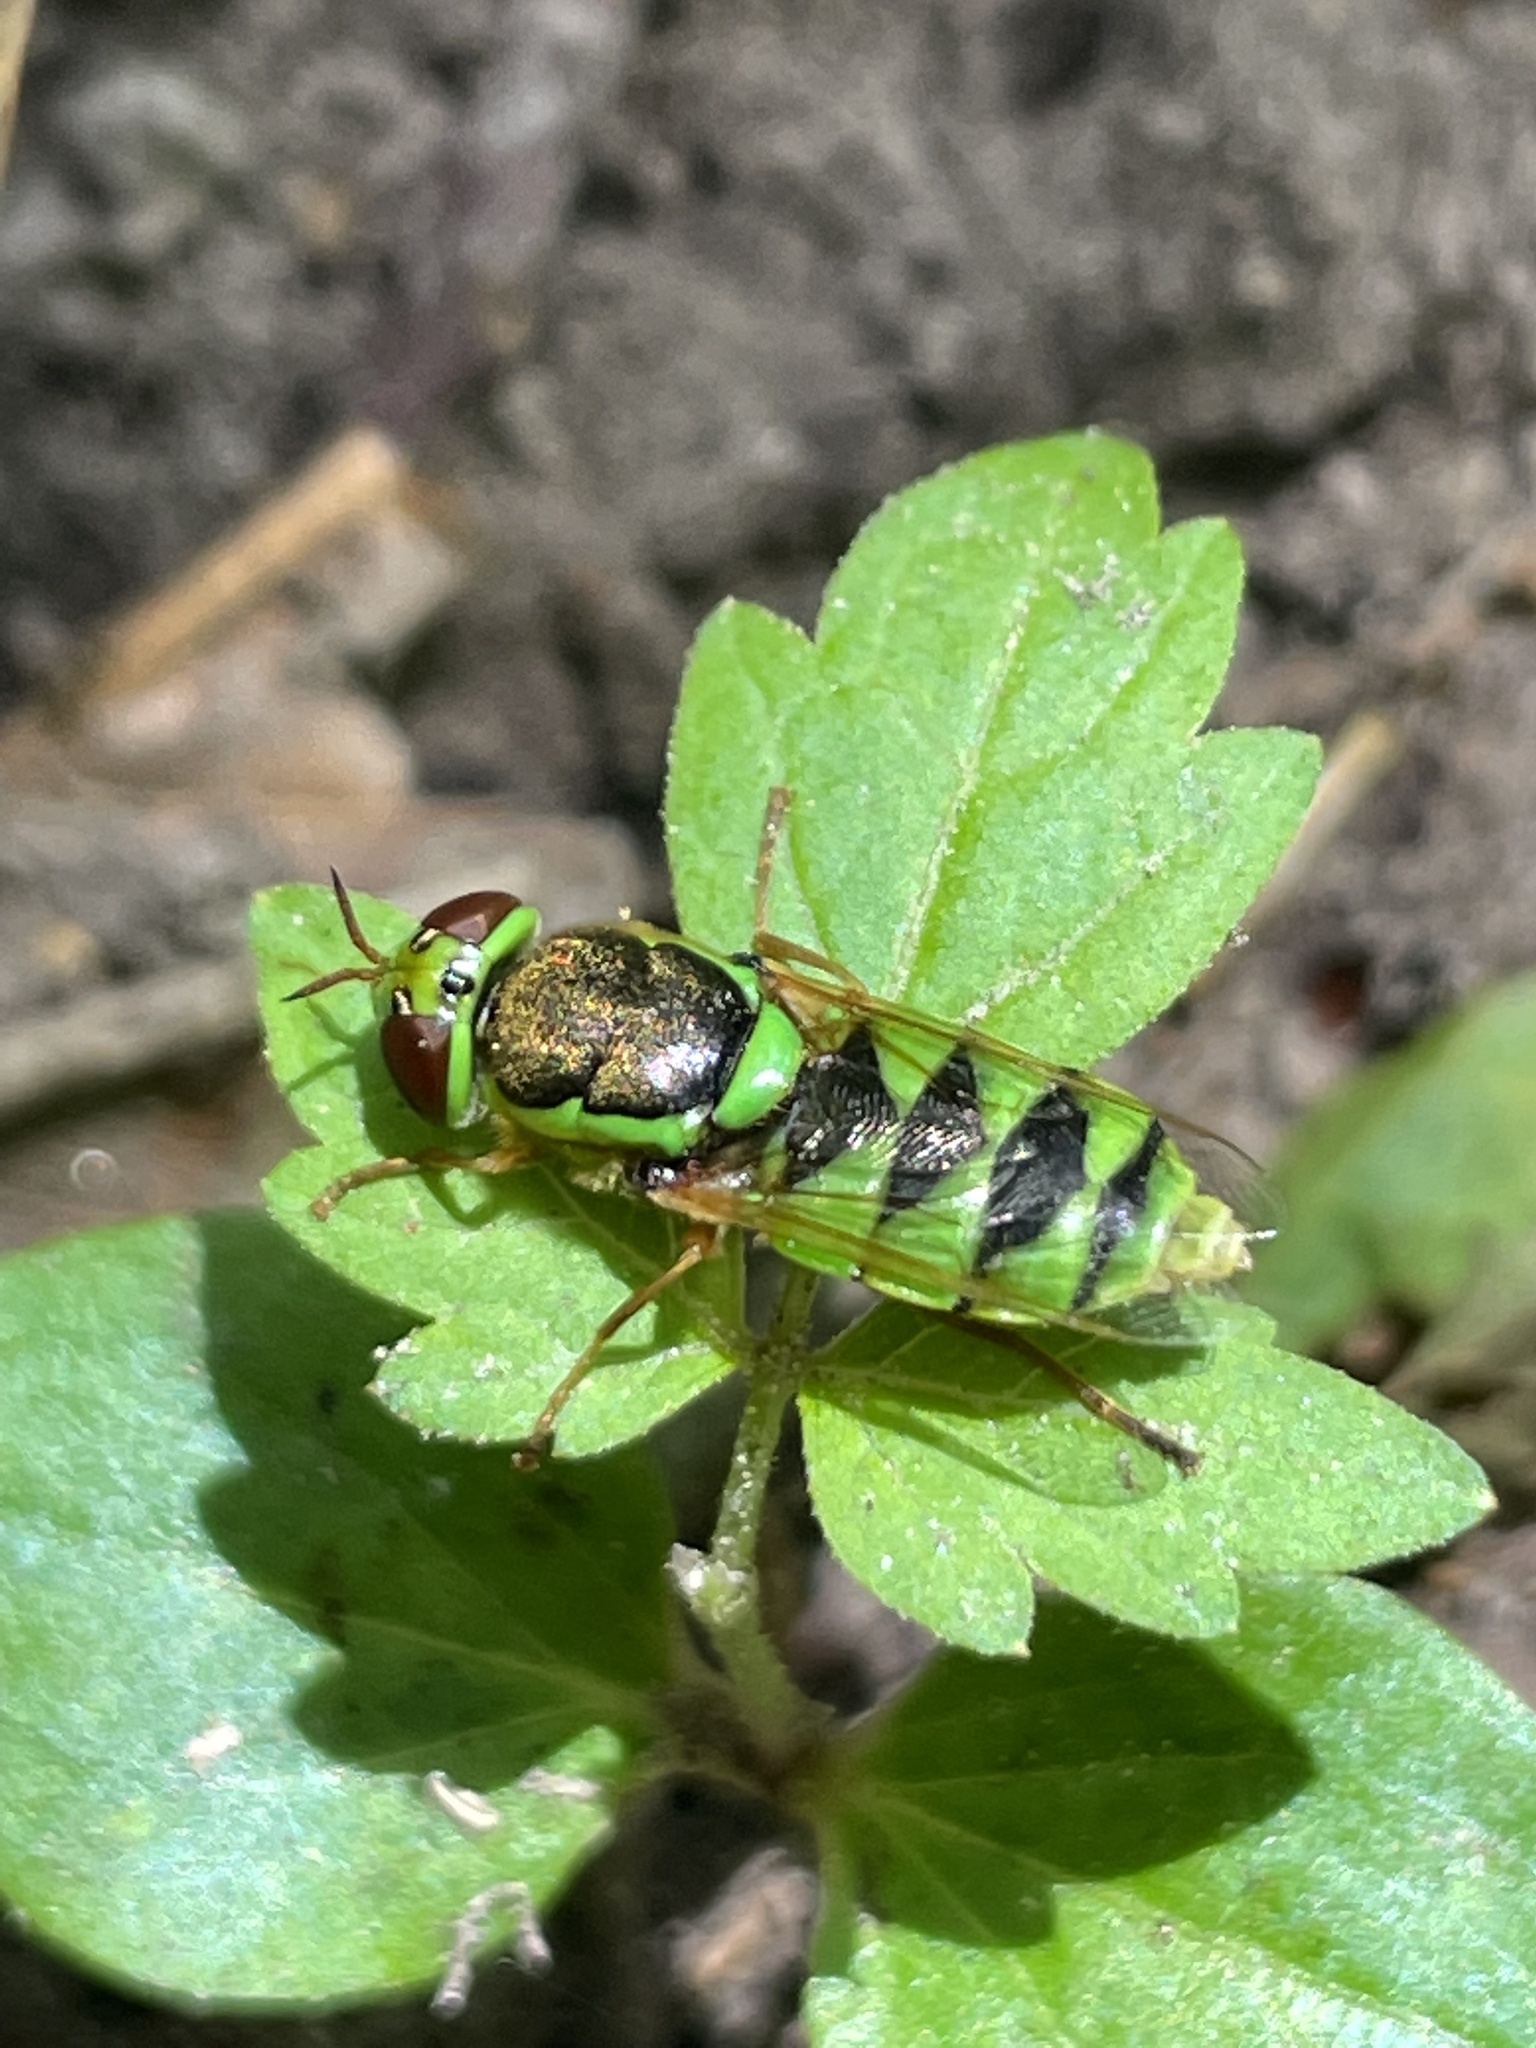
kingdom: Animalia
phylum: Arthropoda
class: Insecta
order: Diptera
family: Stratiomyidae
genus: Odontomyia
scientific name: Odontomyia cincta
